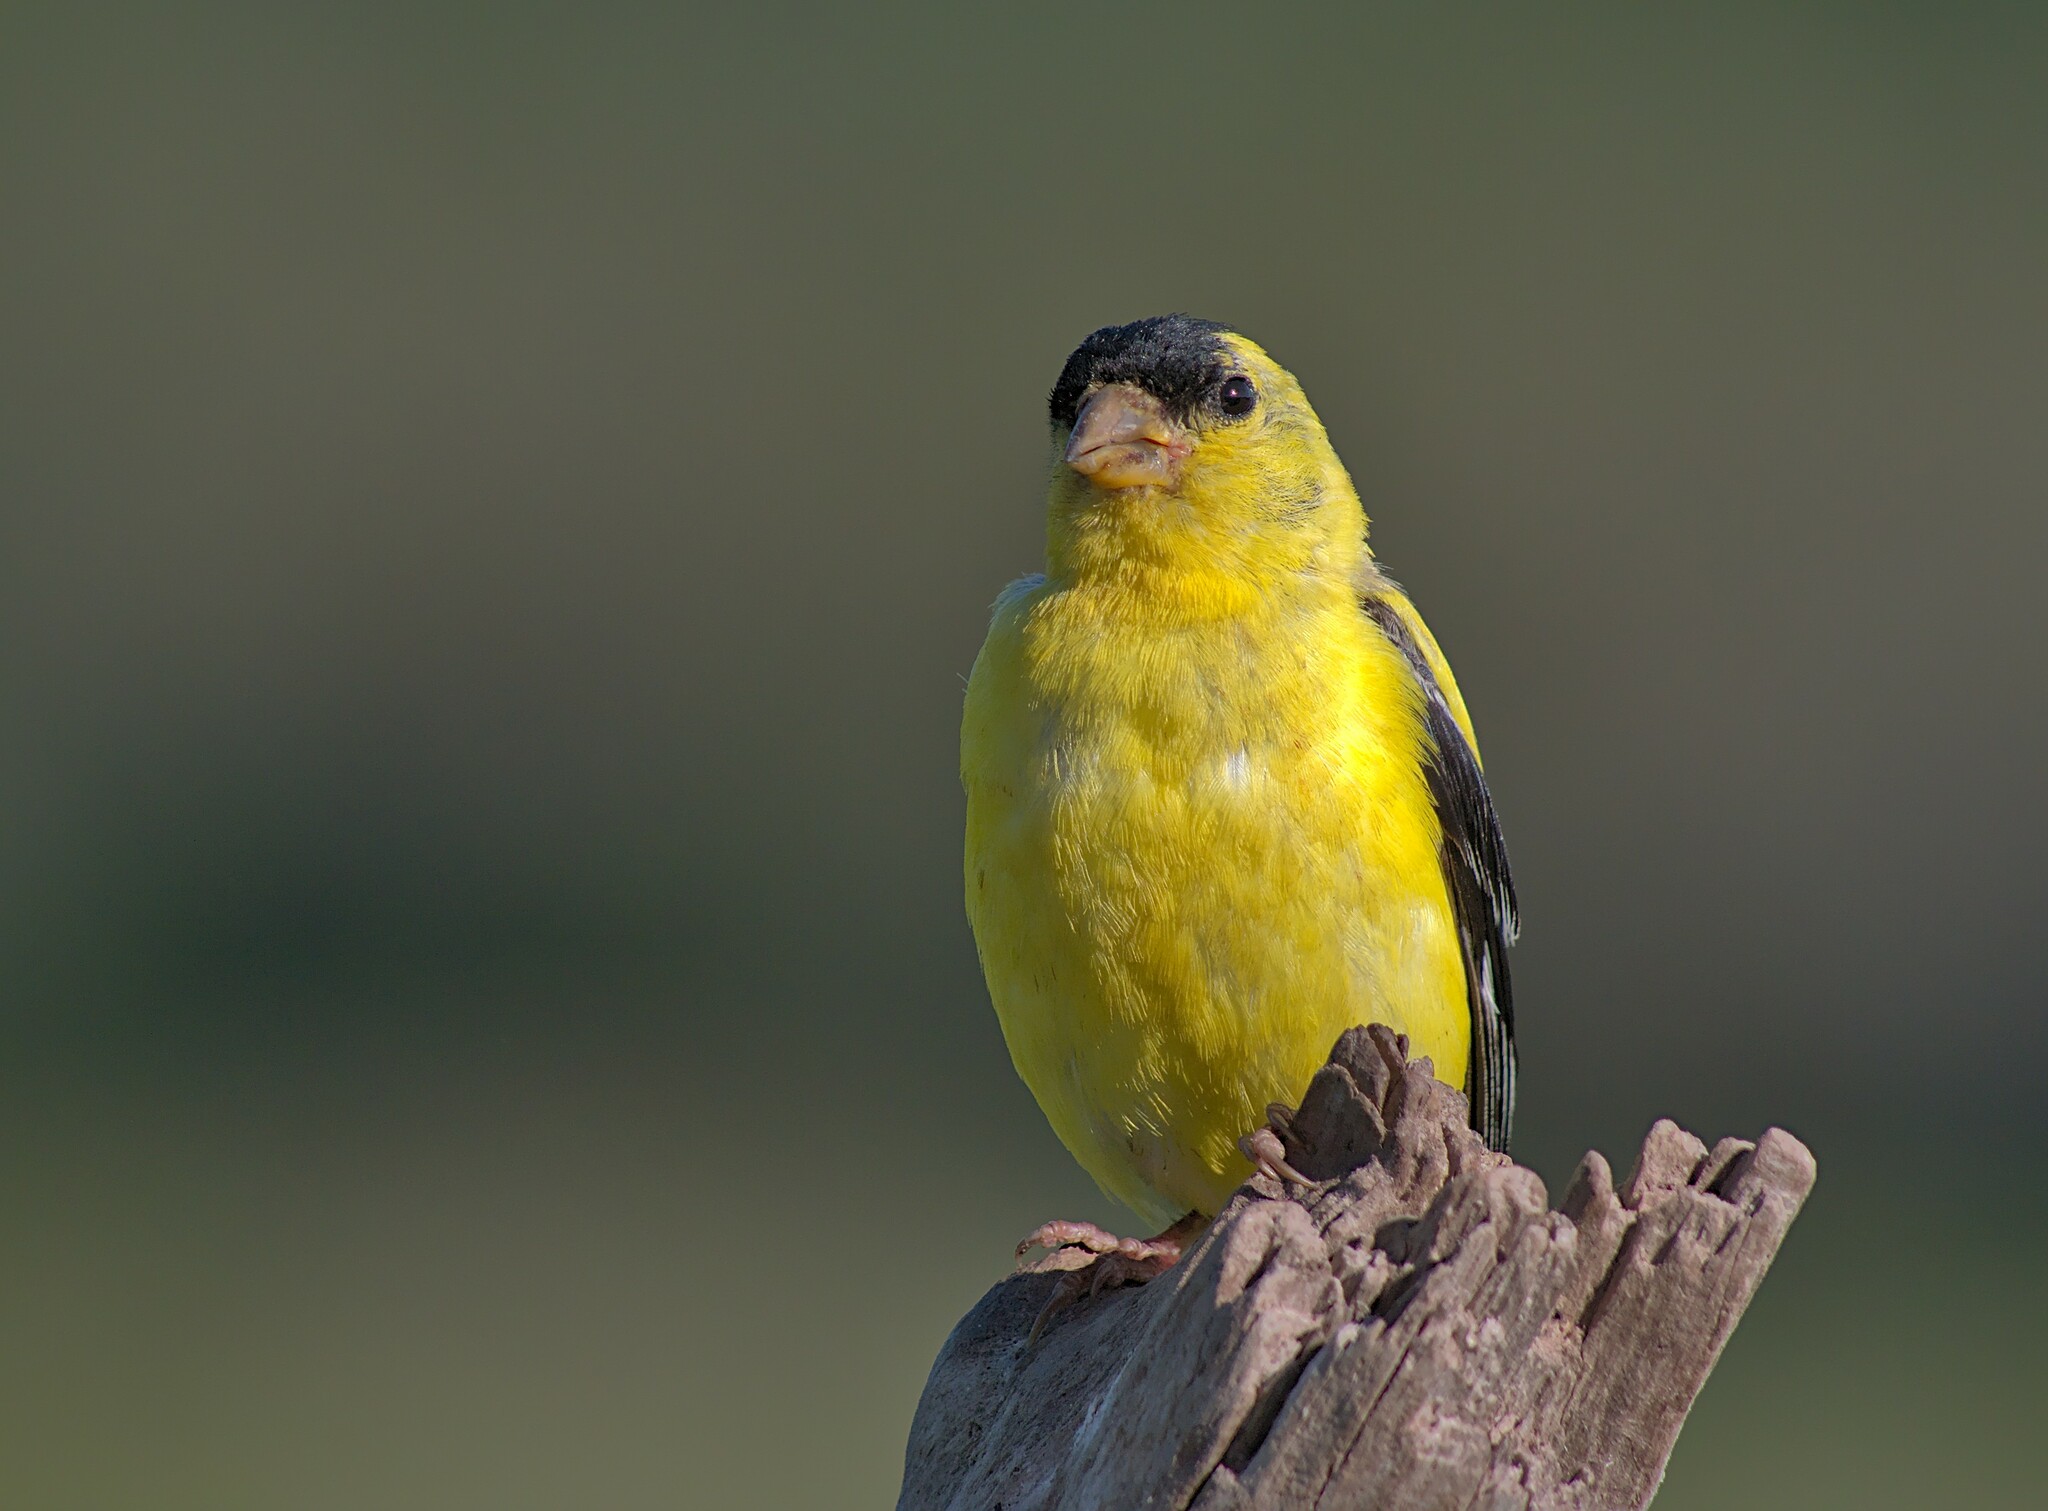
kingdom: Animalia
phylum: Chordata
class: Aves
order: Passeriformes
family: Fringillidae
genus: Spinus
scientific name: Spinus tristis
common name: American goldfinch
